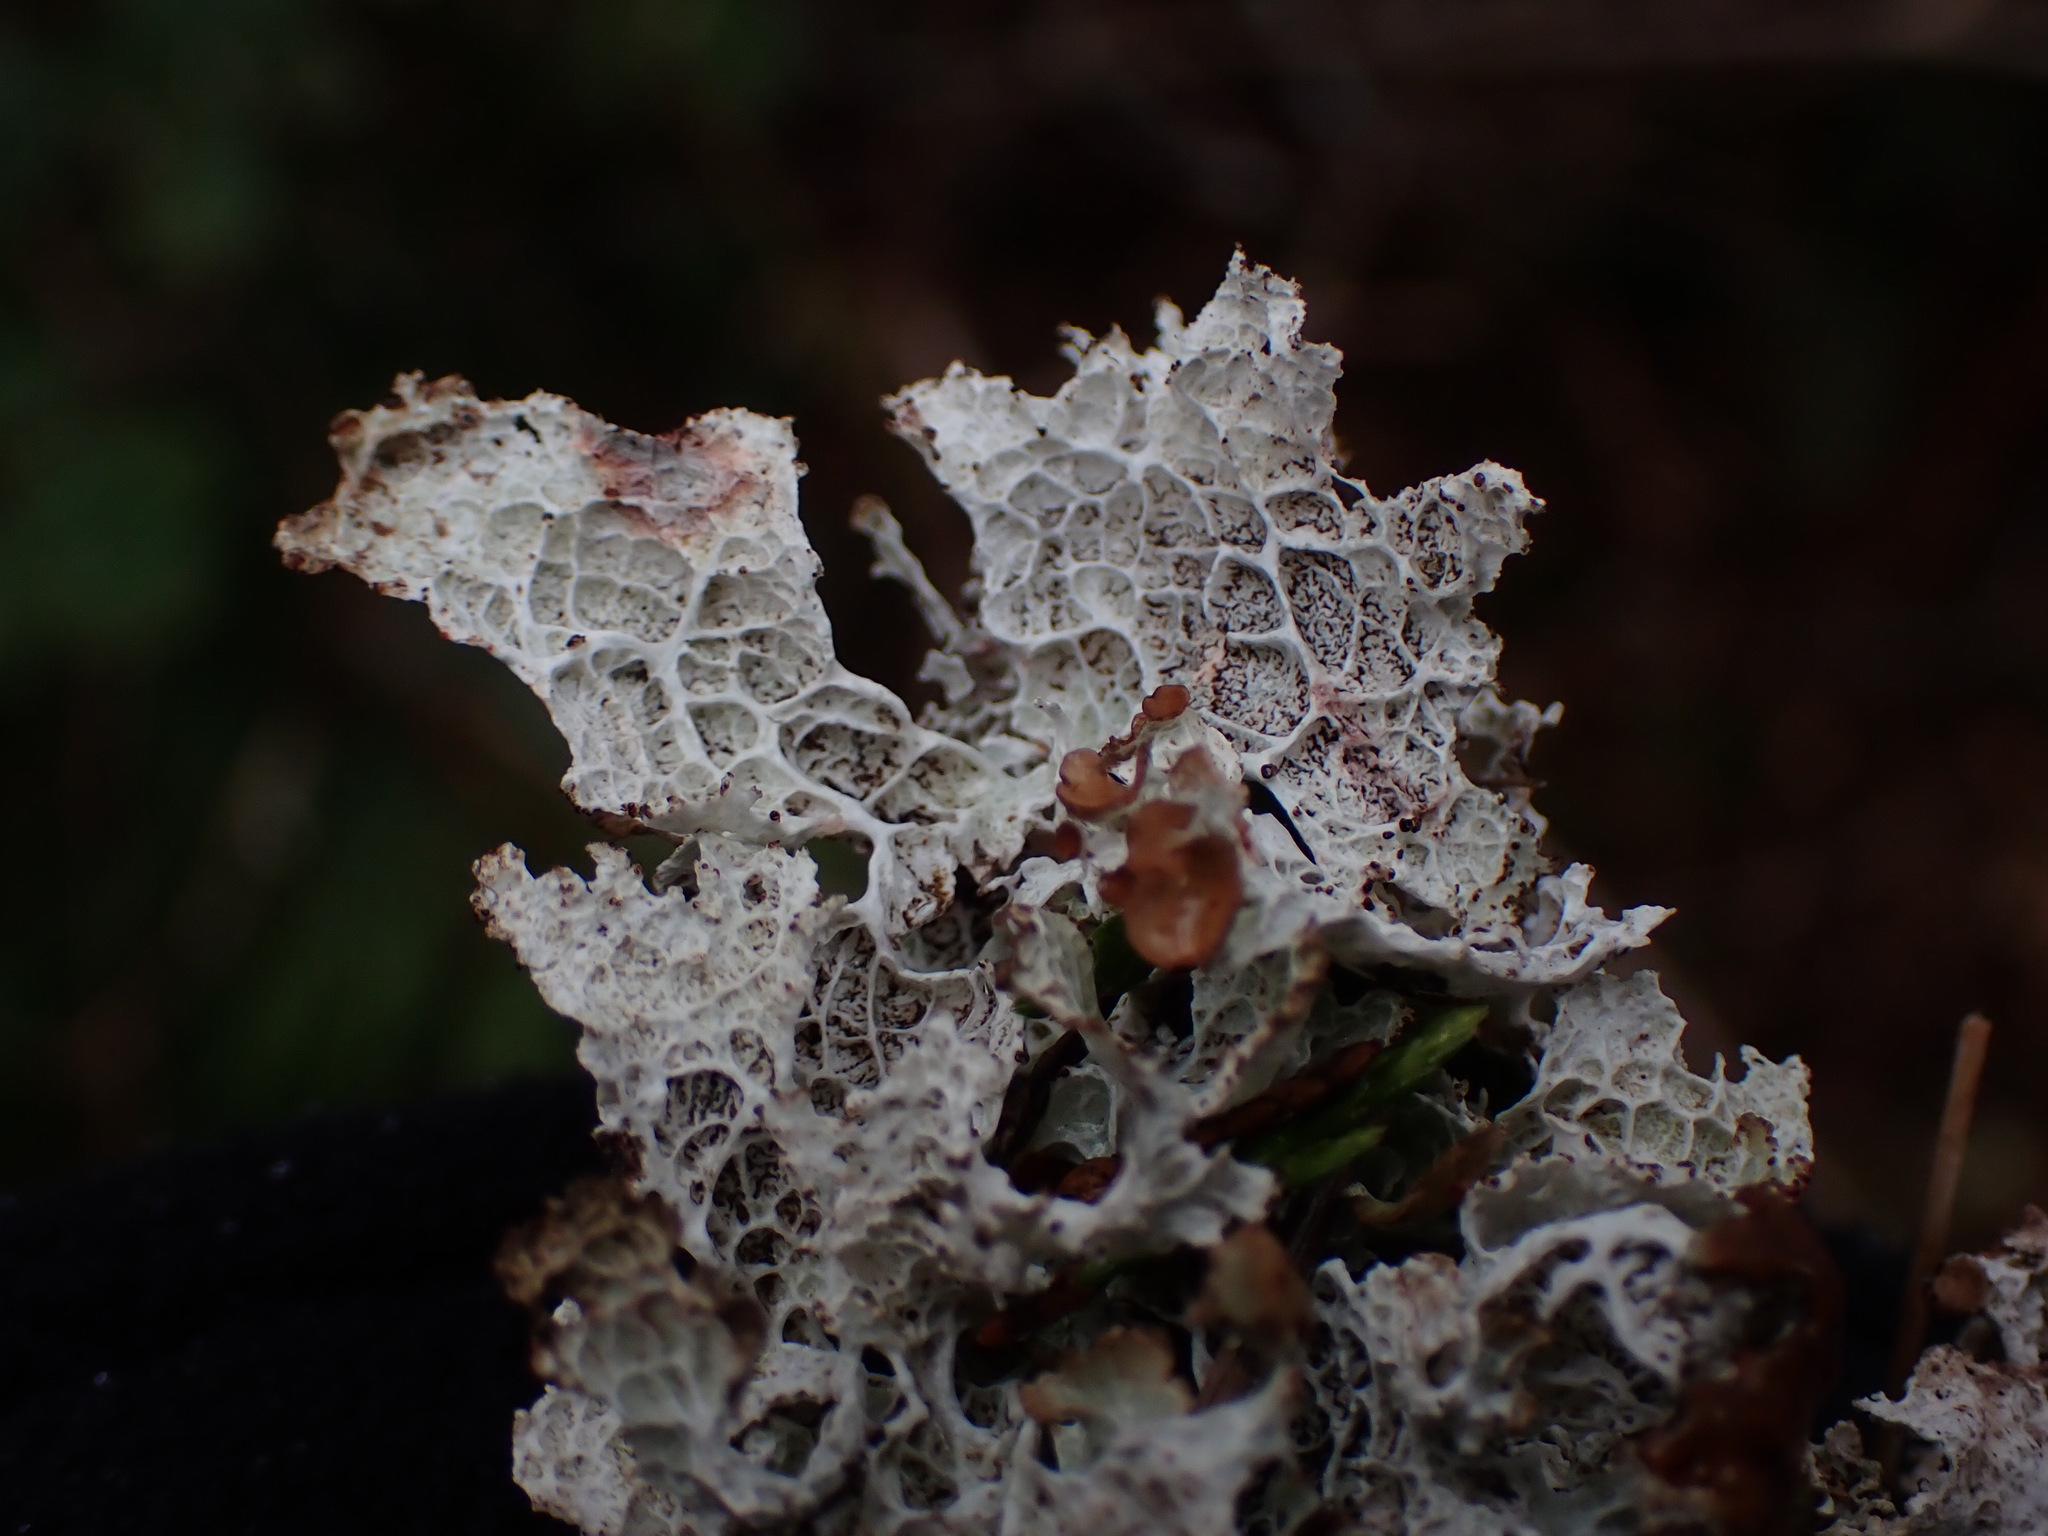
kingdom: Fungi
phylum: Ascomycota
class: Lecanoromycetes
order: Lecanorales
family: Parmeliaceae
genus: Platismatia
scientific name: Platismatia norvegica
